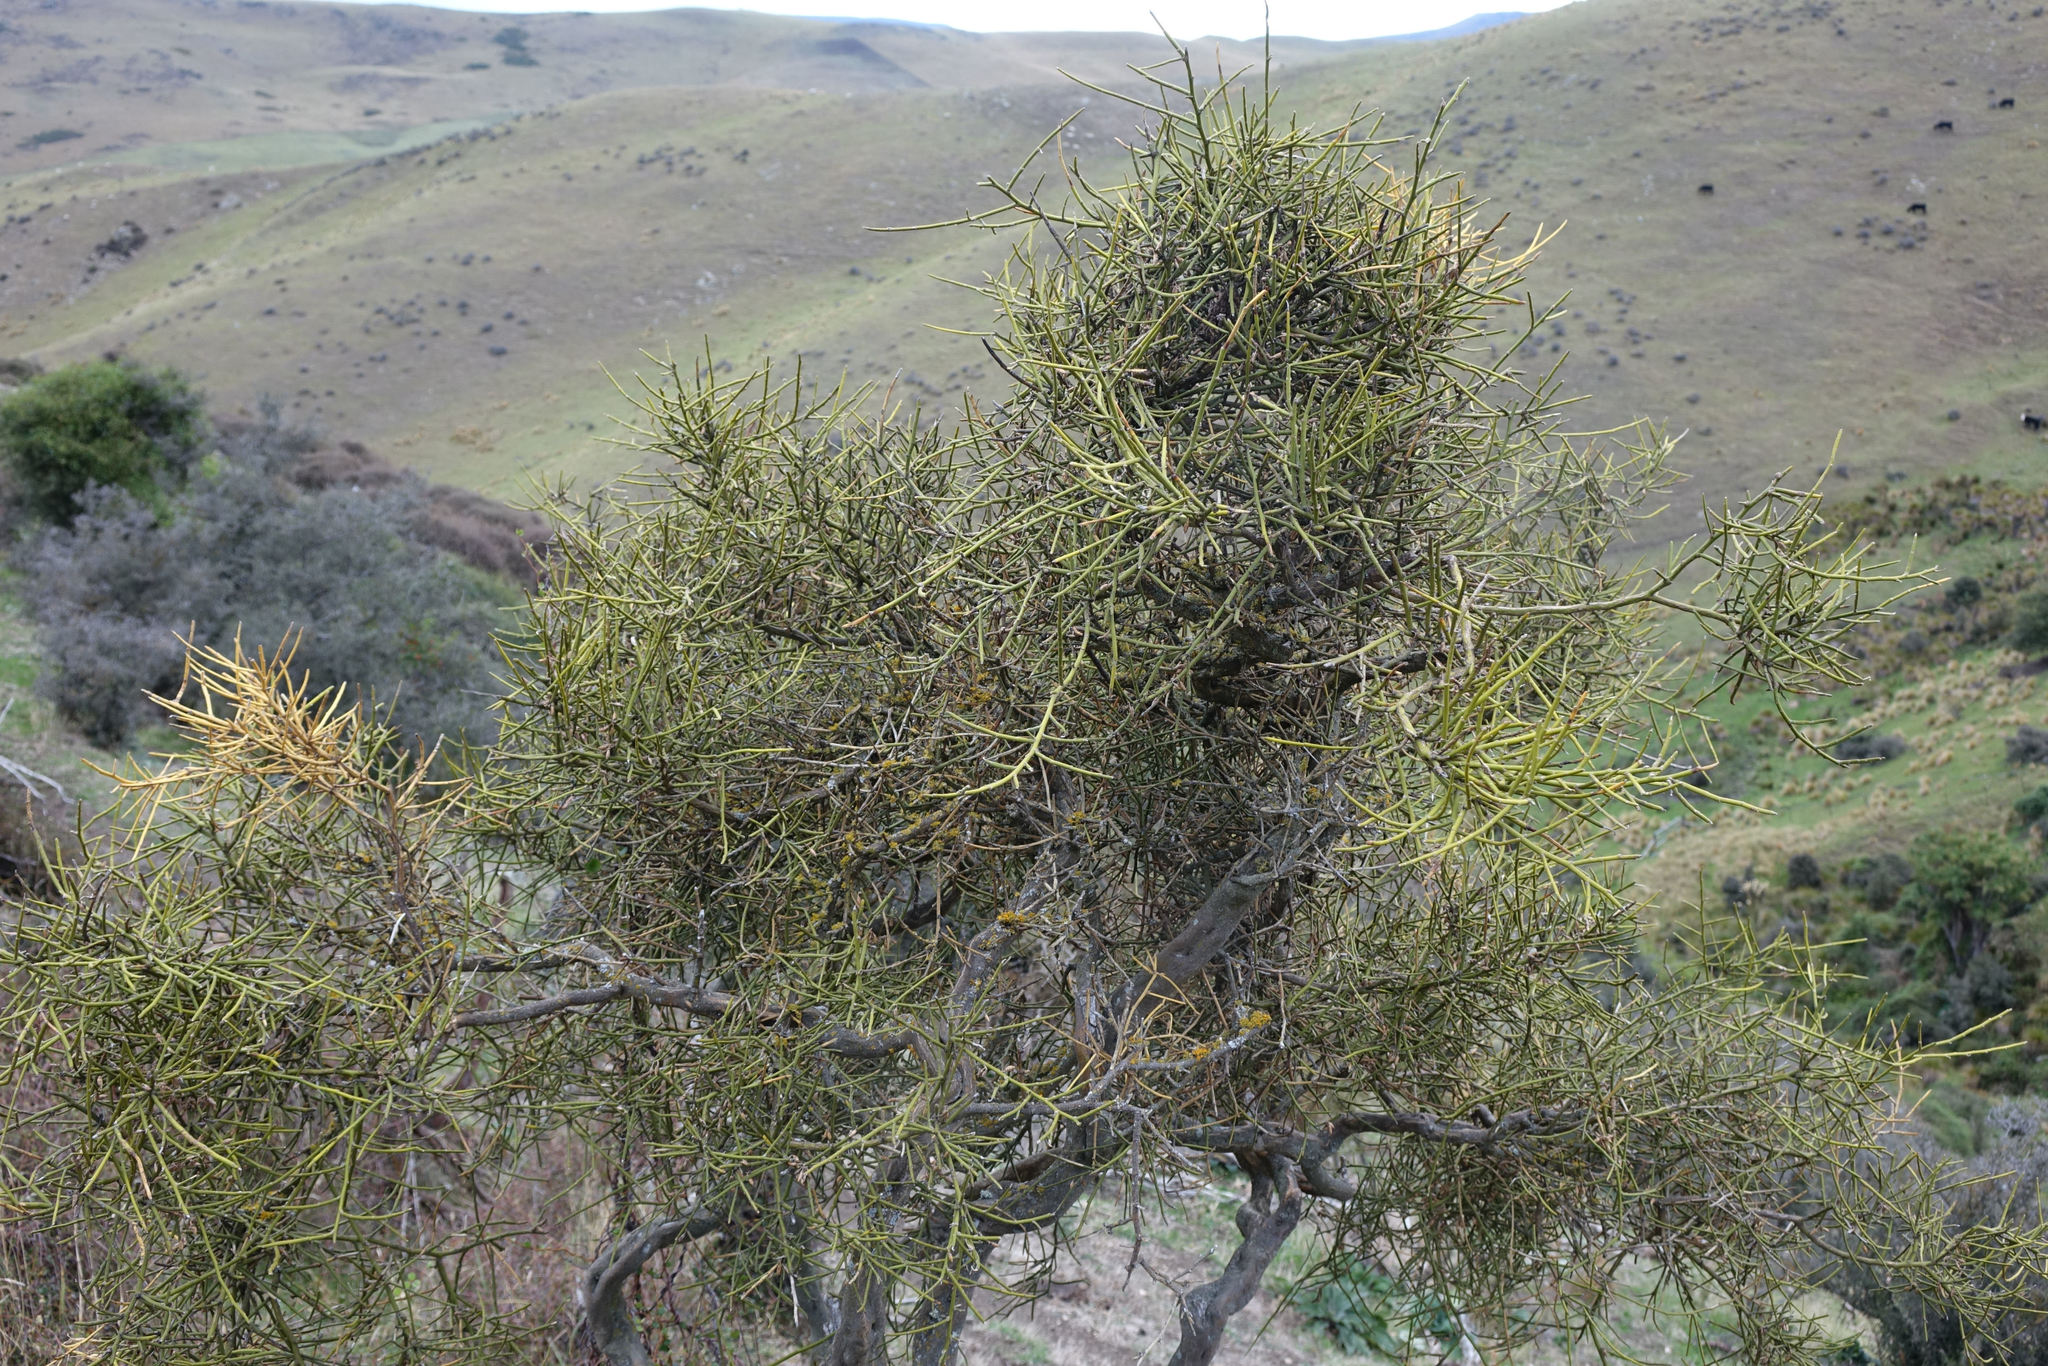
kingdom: Plantae
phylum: Tracheophyta
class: Magnoliopsida
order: Fabales
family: Fabaceae
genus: Carmichaelia
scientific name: Carmichaelia petriei
